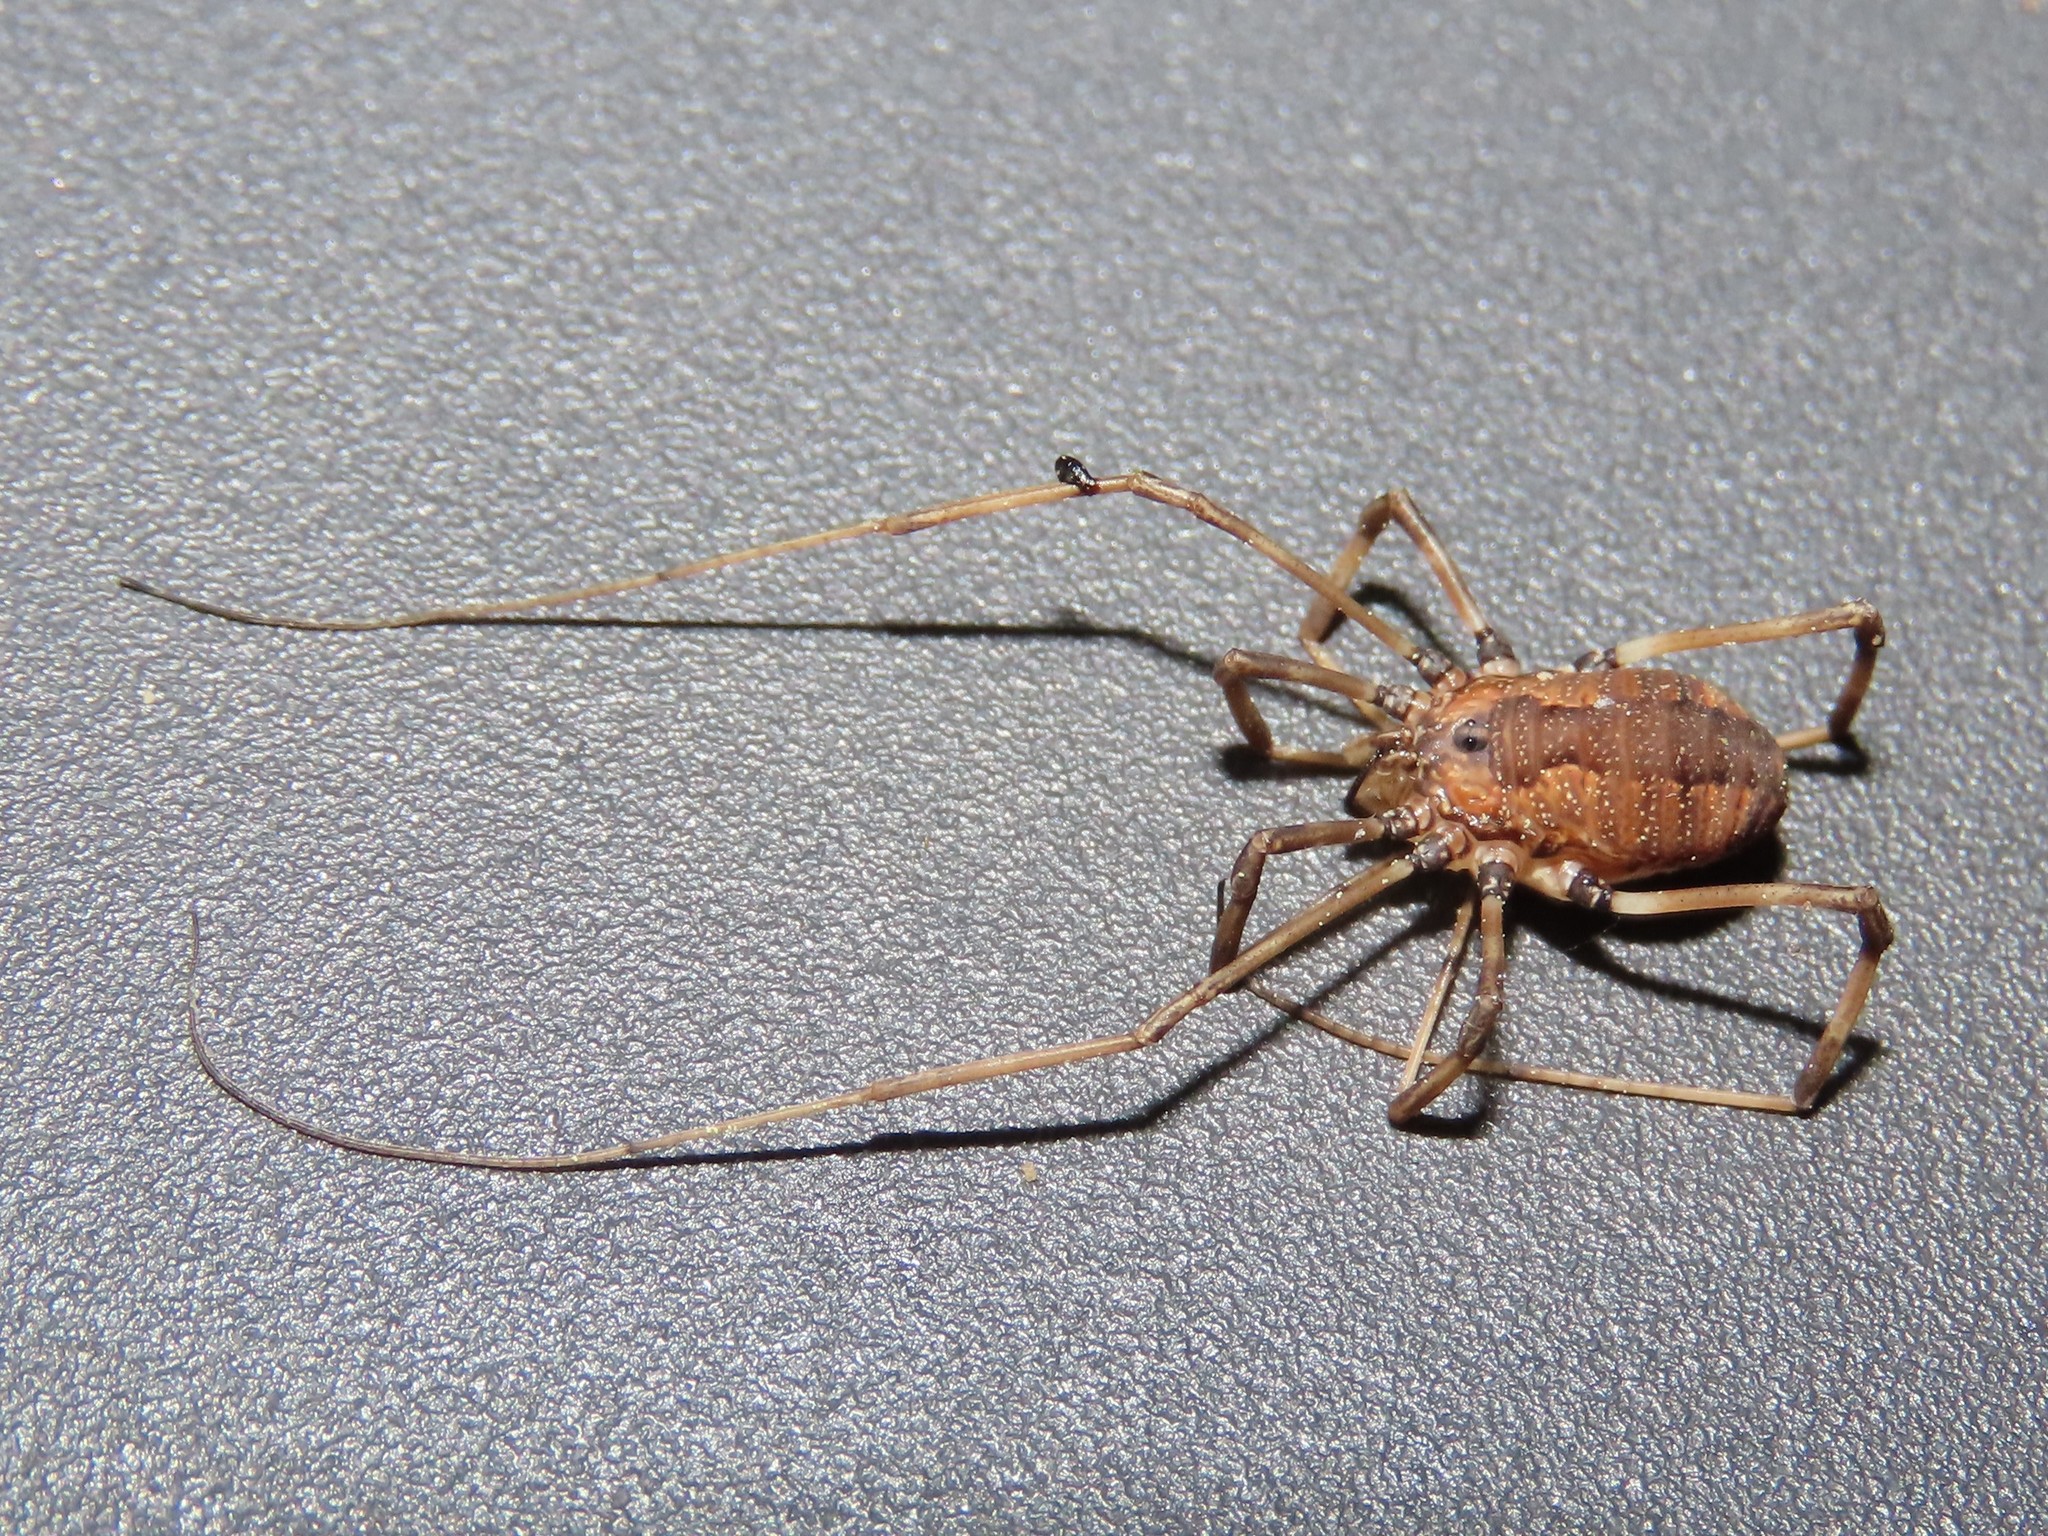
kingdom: Animalia
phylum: Arthropoda
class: Arachnida
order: Opiliones
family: Sclerosomatidae
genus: Hadrobunus
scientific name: Hadrobunus maculosus
